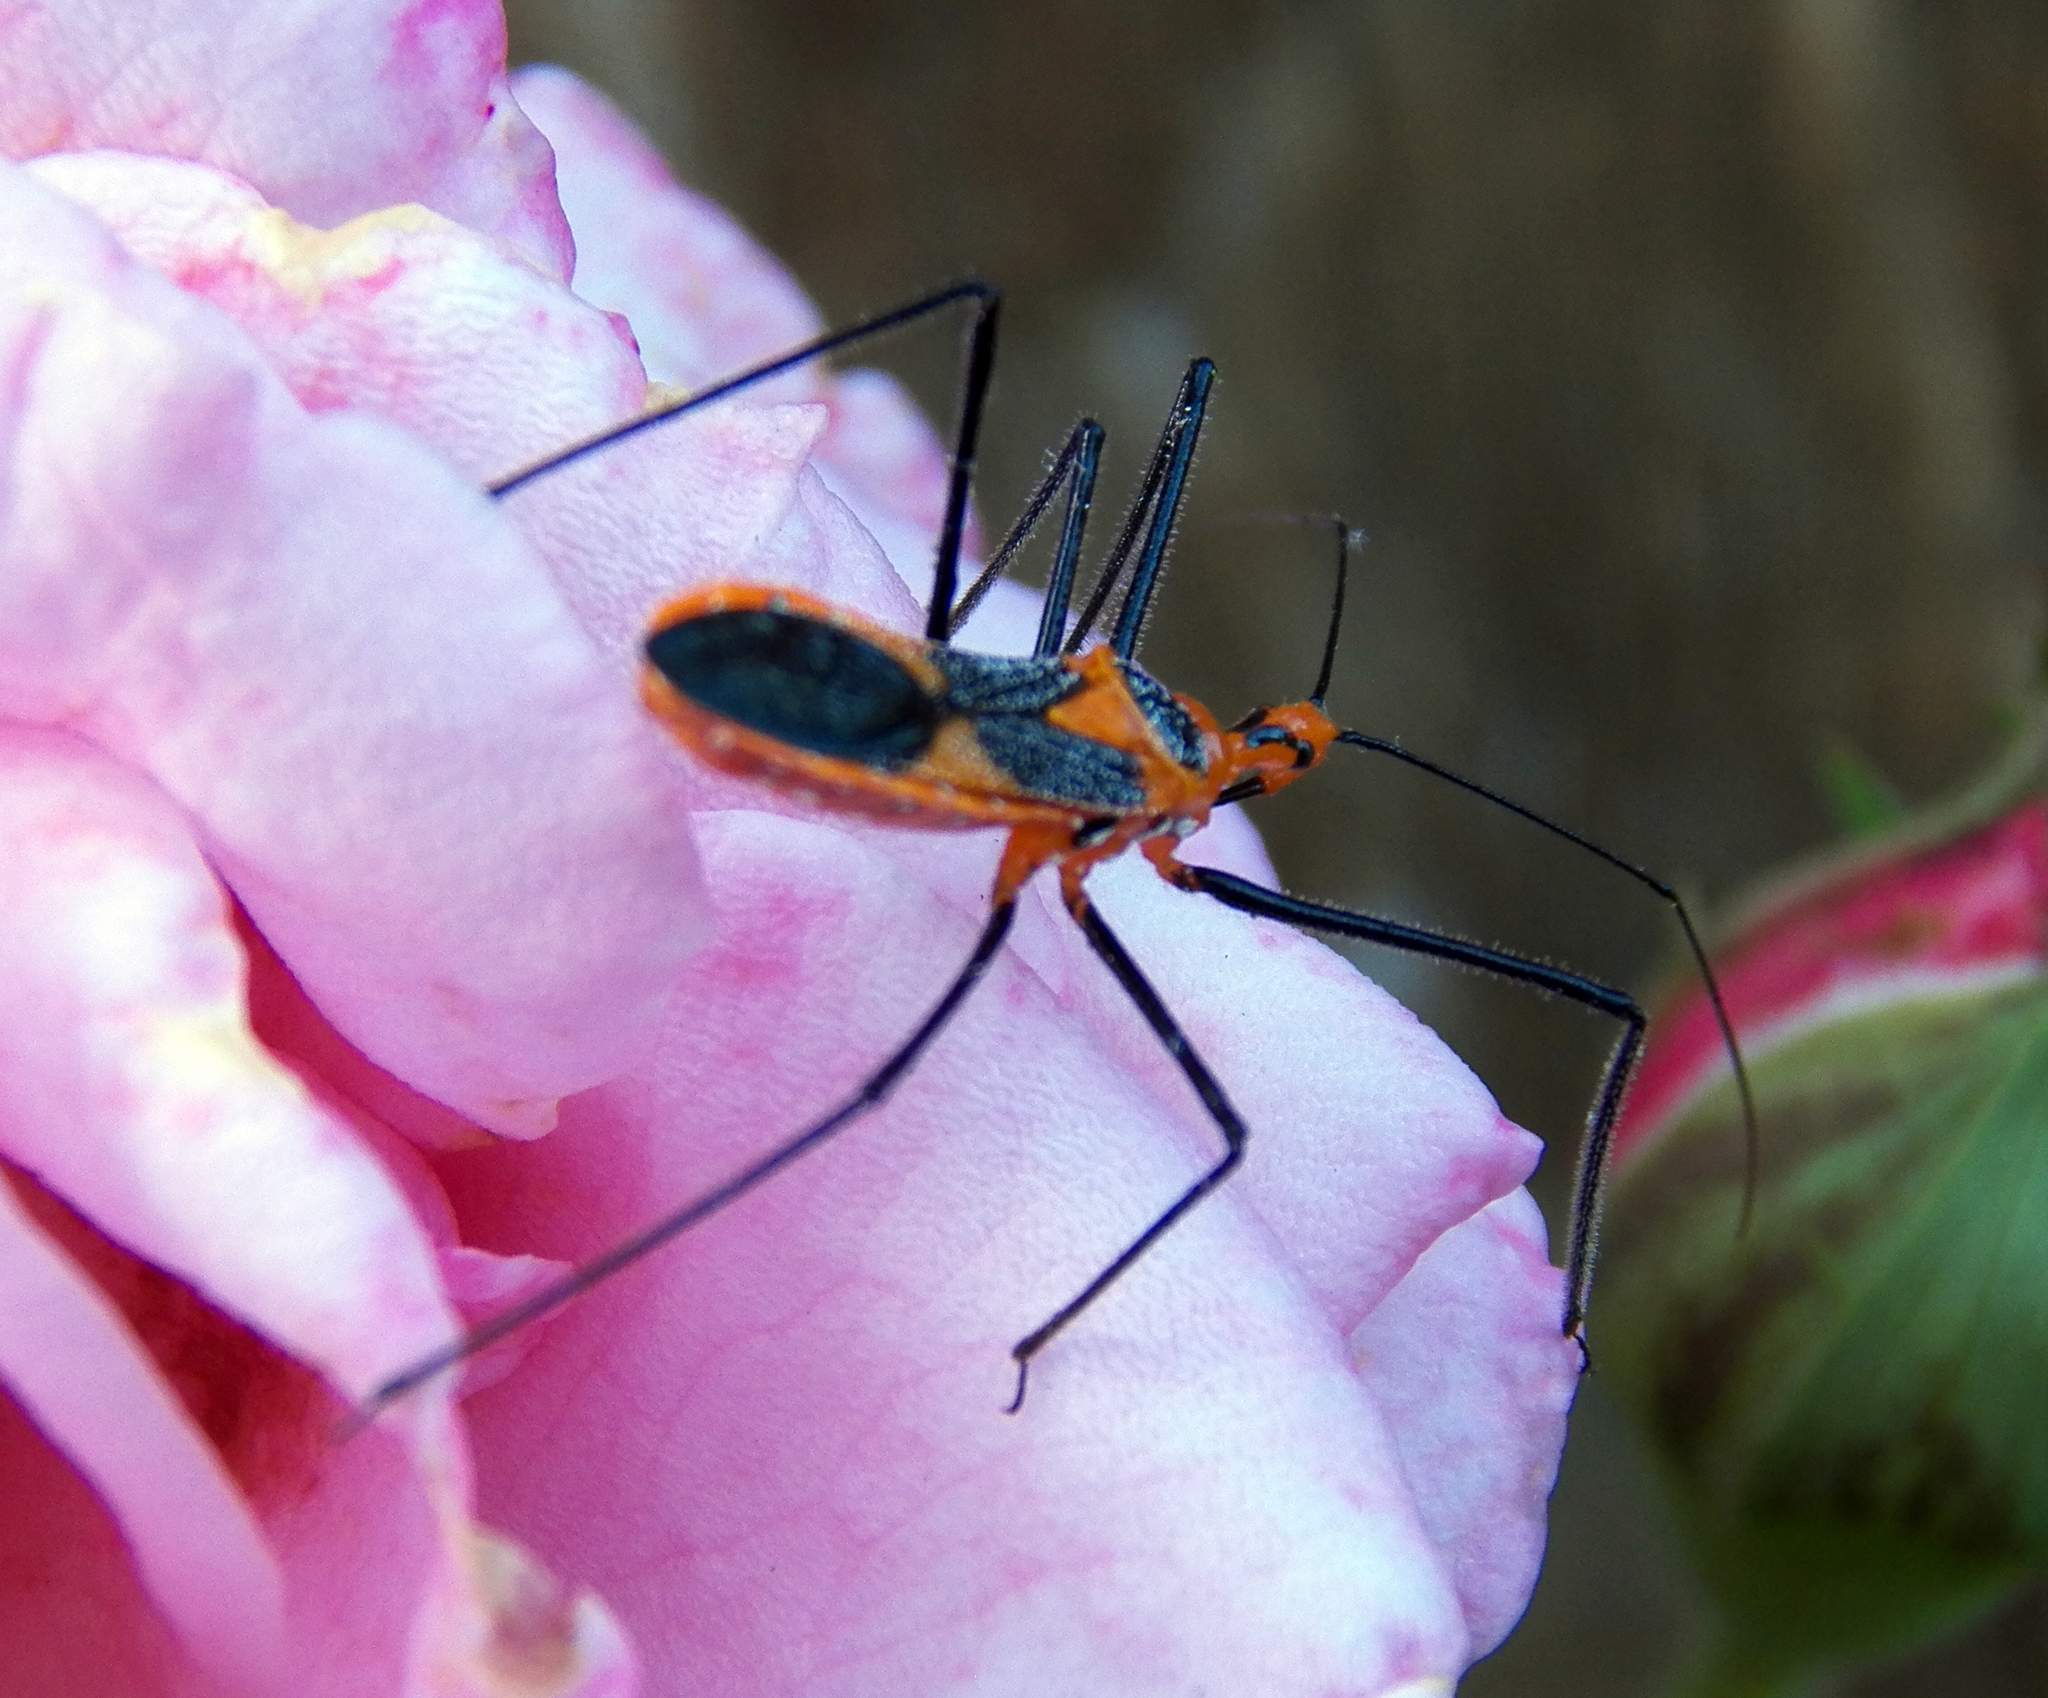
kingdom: Animalia
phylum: Arthropoda
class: Insecta
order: Hemiptera
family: Reduviidae
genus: Zelus
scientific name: Zelus longipes
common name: Milkweed assassin bug
